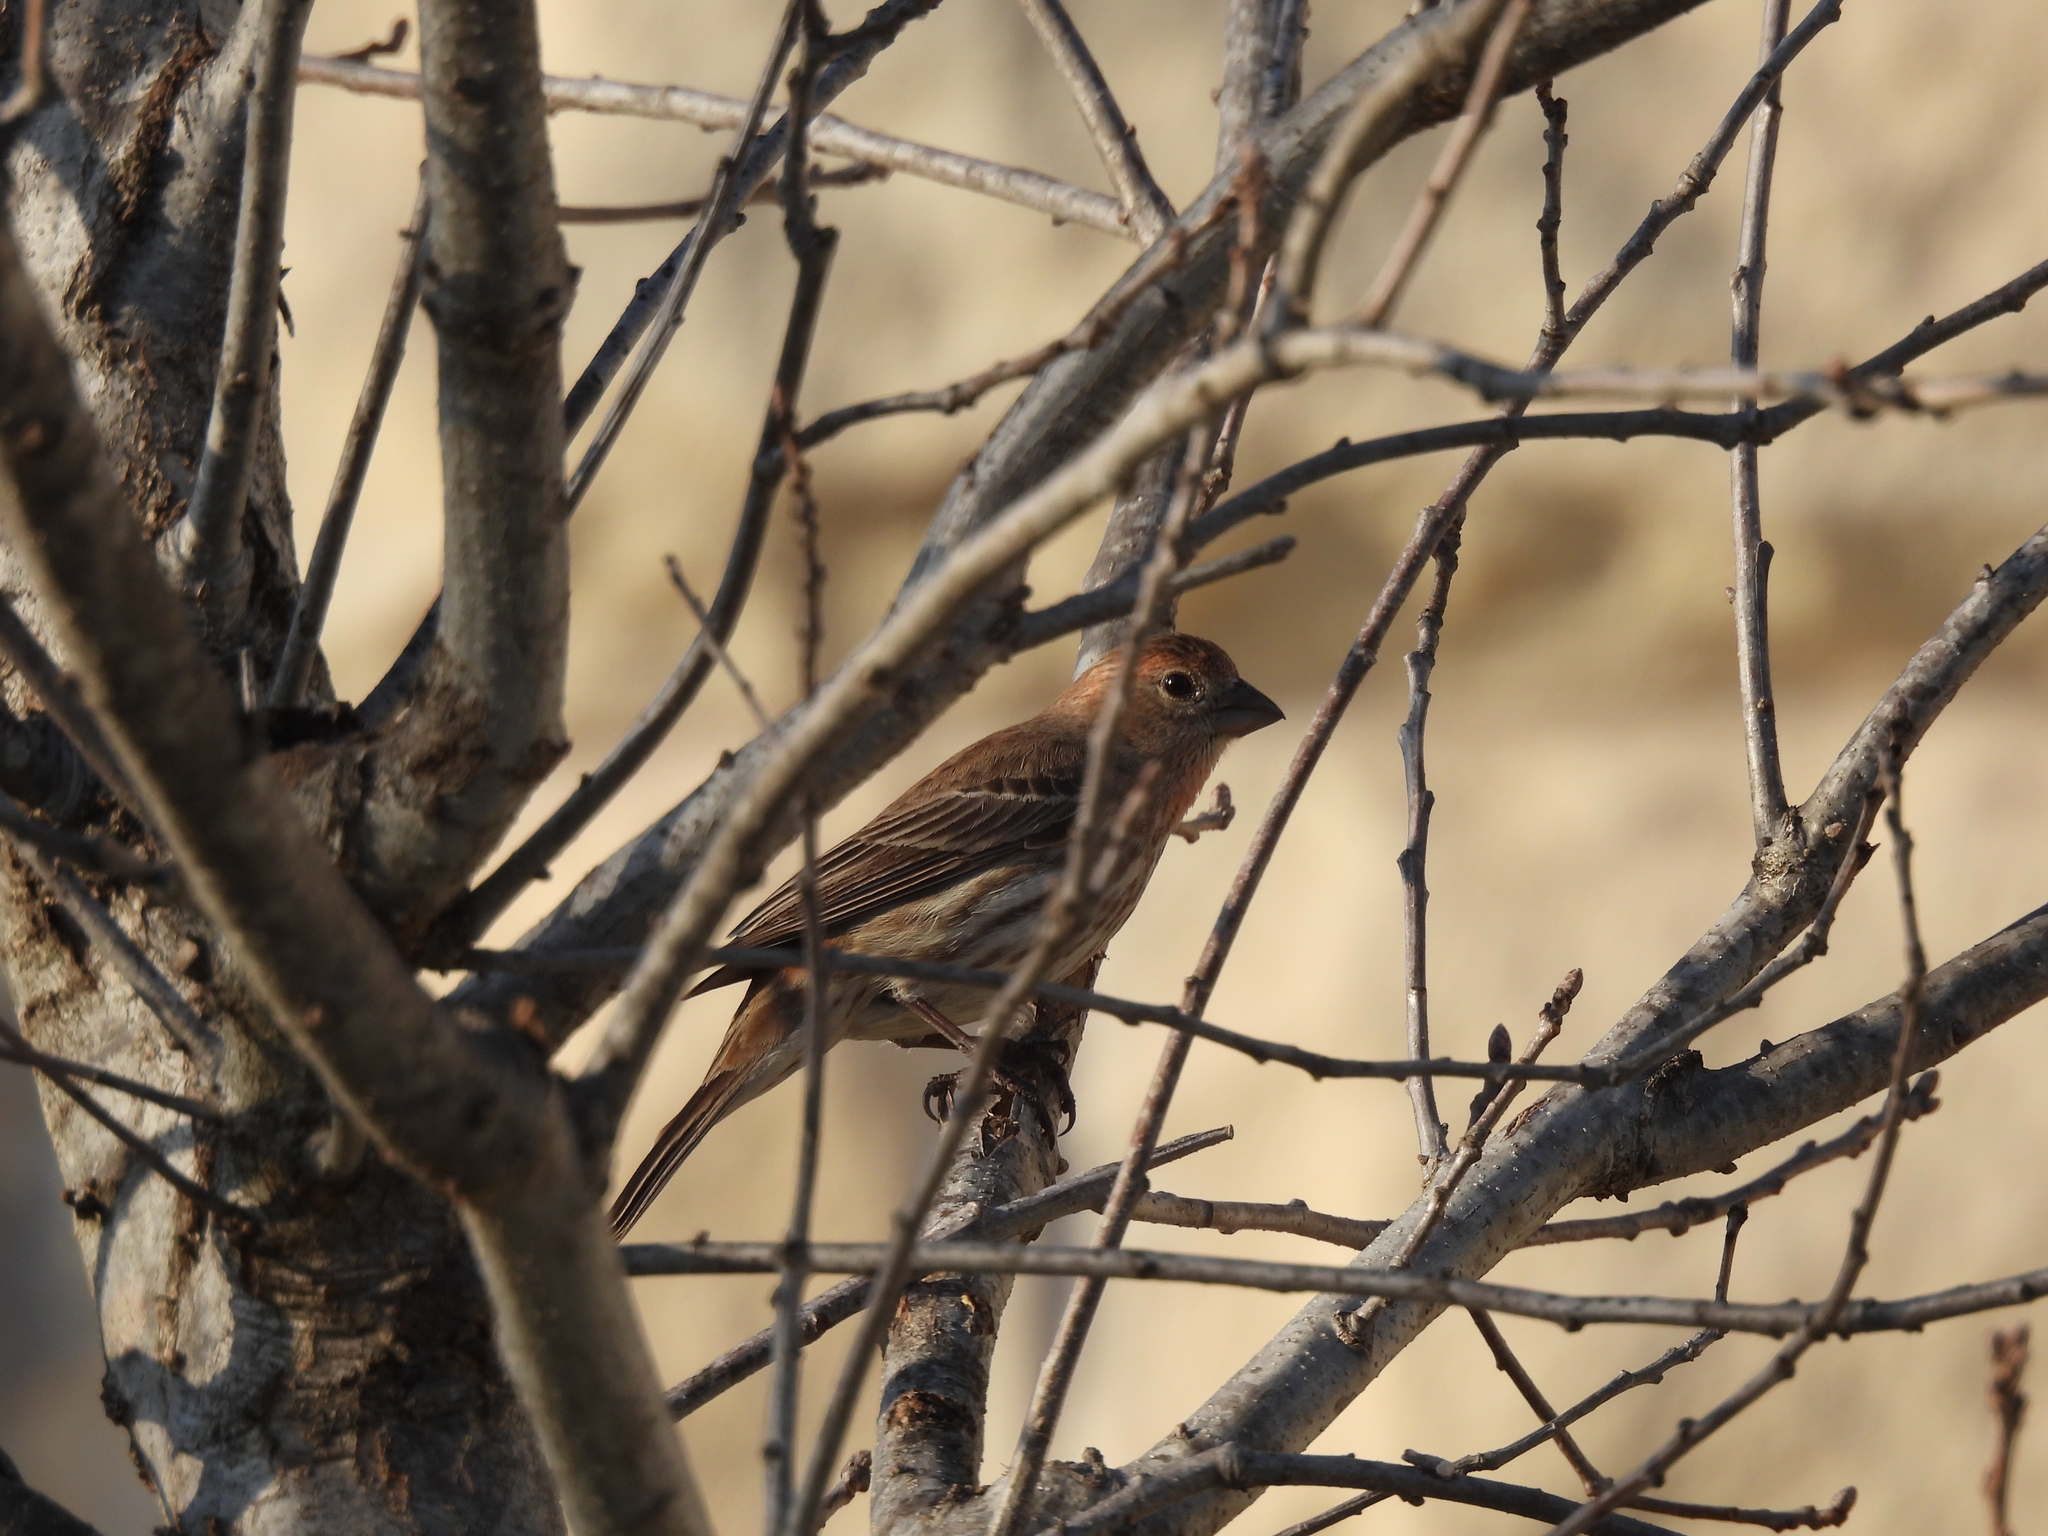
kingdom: Animalia
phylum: Chordata
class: Aves
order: Passeriformes
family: Fringillidae
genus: Haemorhous
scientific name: Haemorhous mexicanus
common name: House finch
